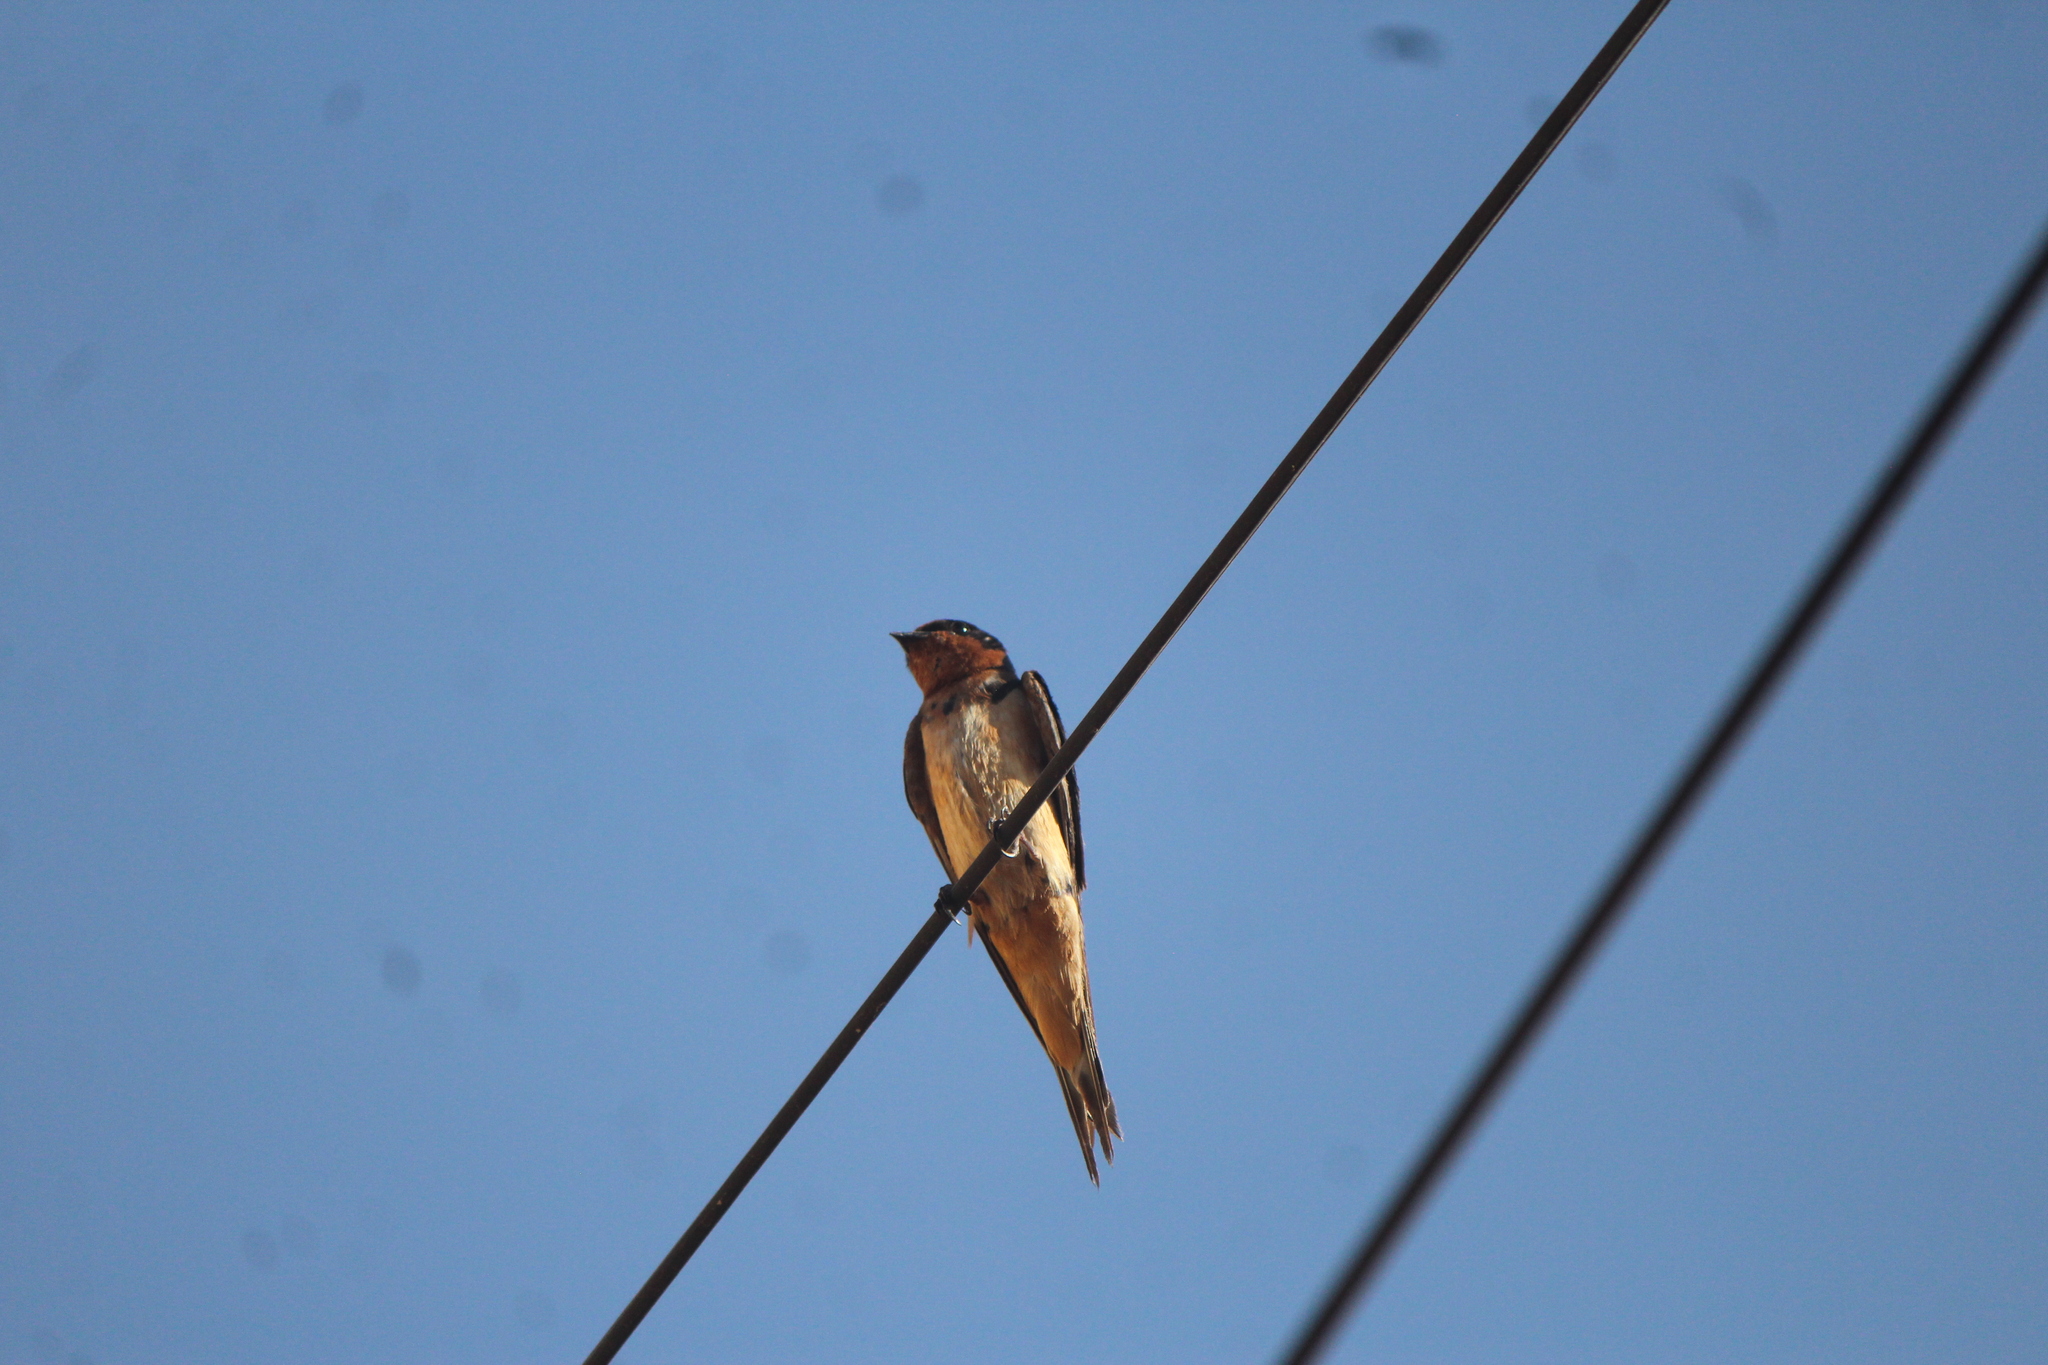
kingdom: Animalia
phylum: Chordata
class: Aves
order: Passeriformes
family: Hirundinidae
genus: Hirundo
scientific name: Hirundo rustica
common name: Barn swallow
